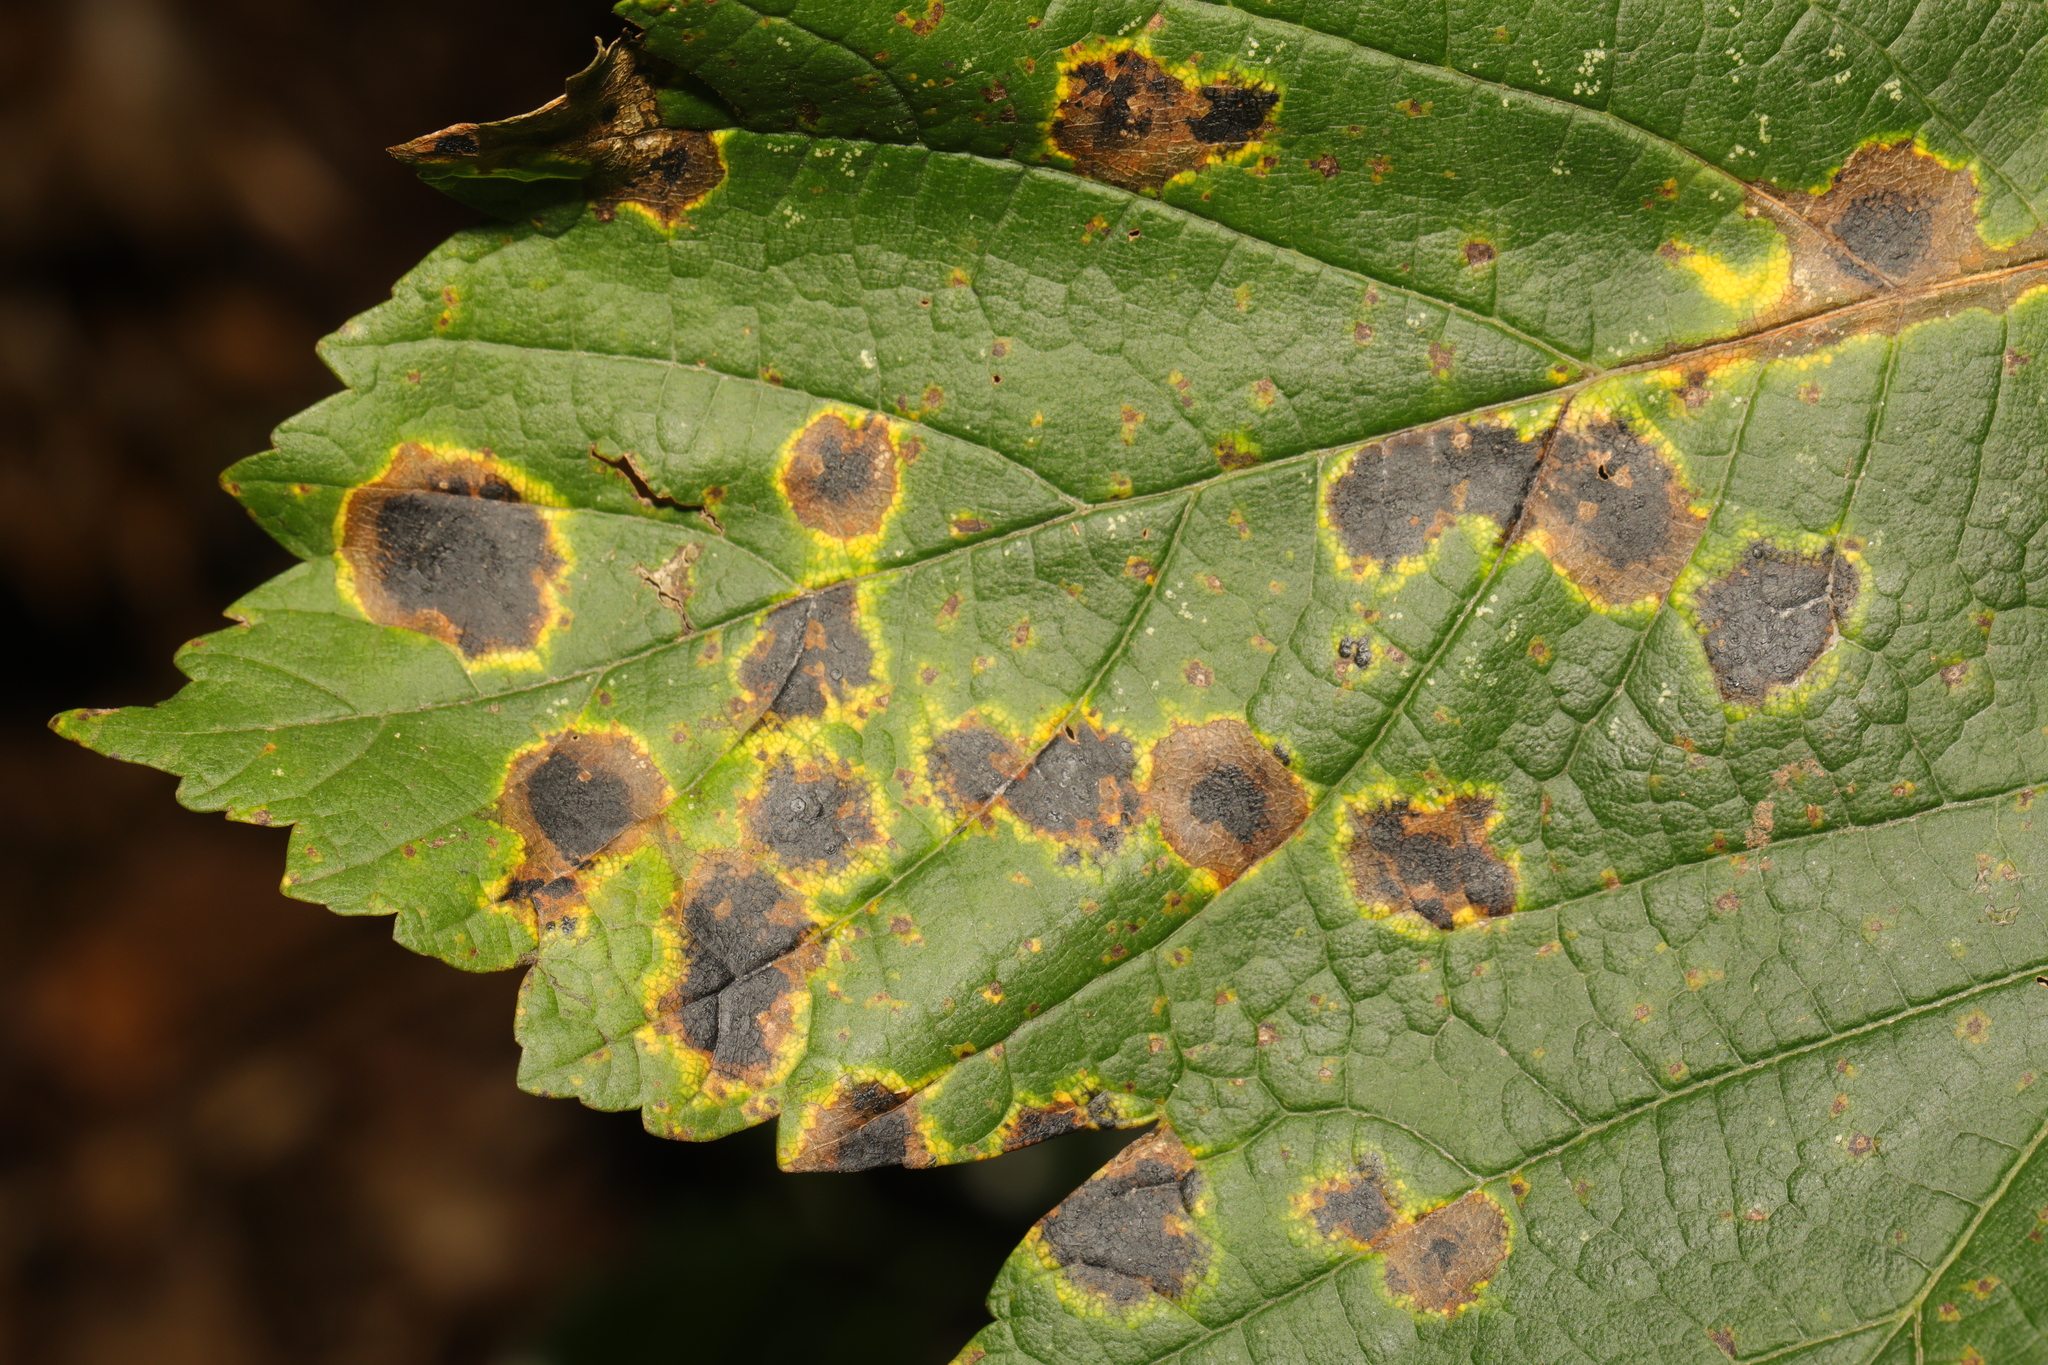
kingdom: Fungi
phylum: Ascomycota
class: Leotiomycetes
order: Rhytismatales
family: Rhytismataceae
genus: Rhytisma
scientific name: Rhytisma acerinum
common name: European tar spot
